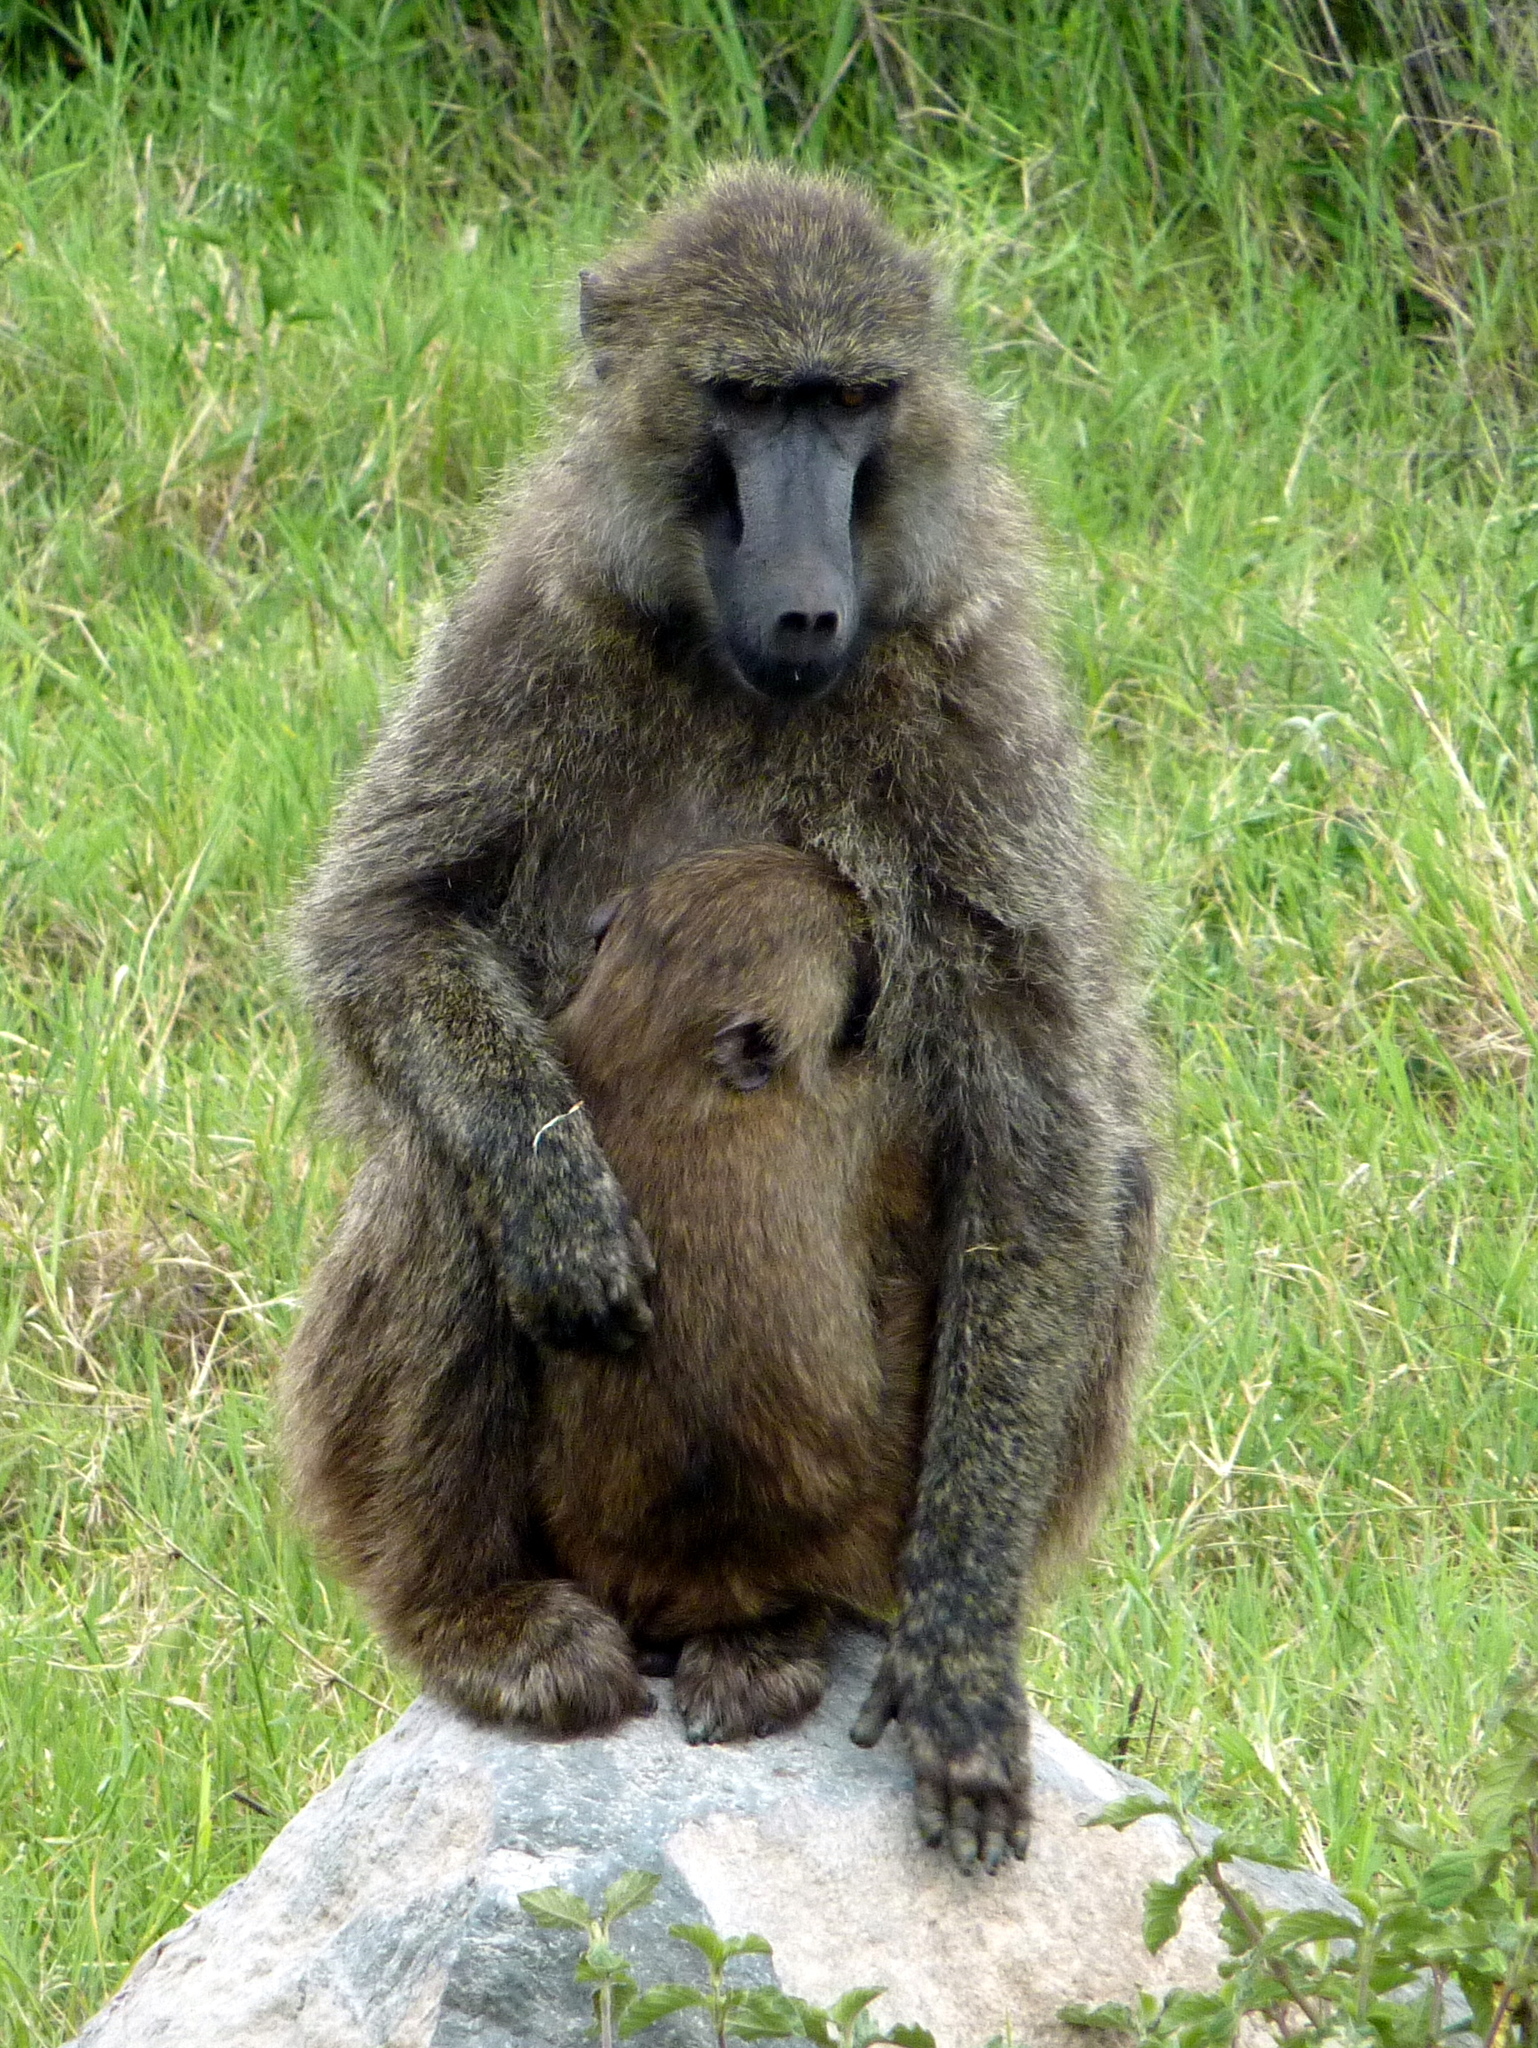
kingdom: Animalia
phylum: Chordata
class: Mammalia
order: Primates
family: Cercopithecidae
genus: Papio
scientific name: Papio anubis
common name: Olive baboon
